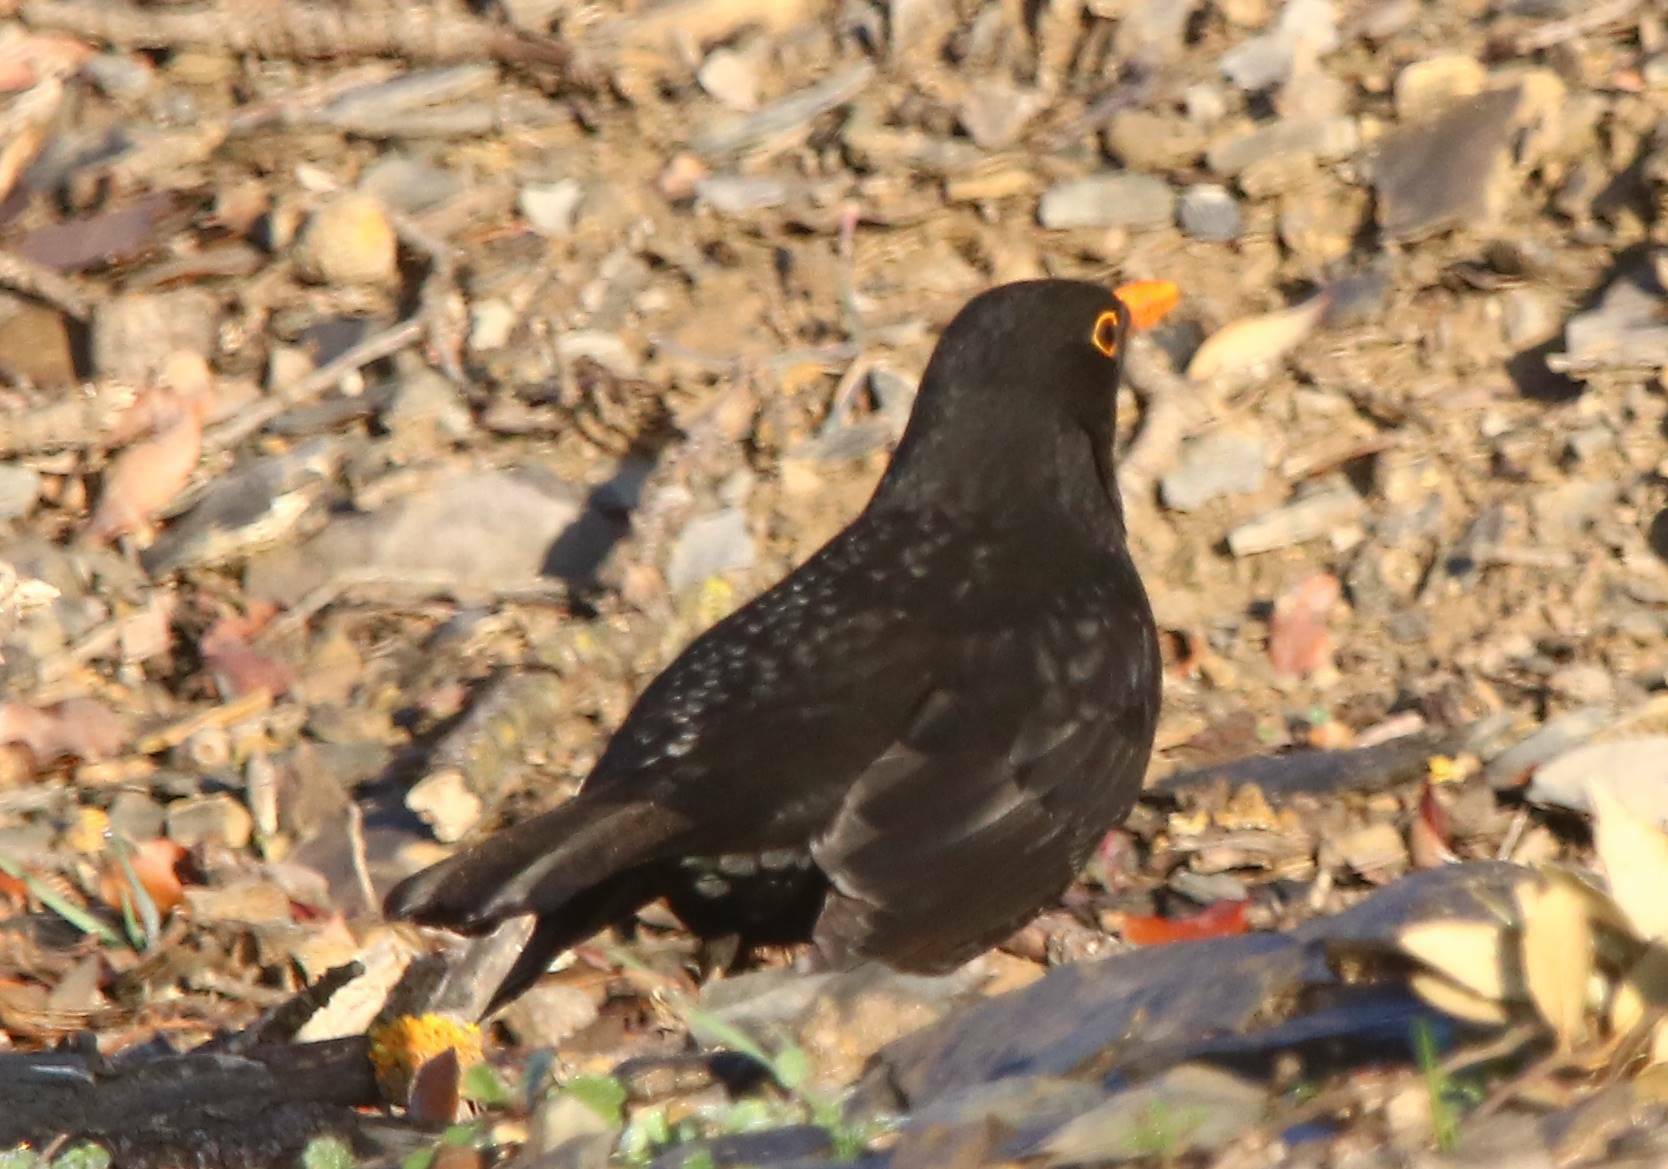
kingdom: Animalia
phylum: Chordata
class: Aves
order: Passeriformes
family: Turdidae
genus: Turdus
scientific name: Turdus merula
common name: Common blackbird
